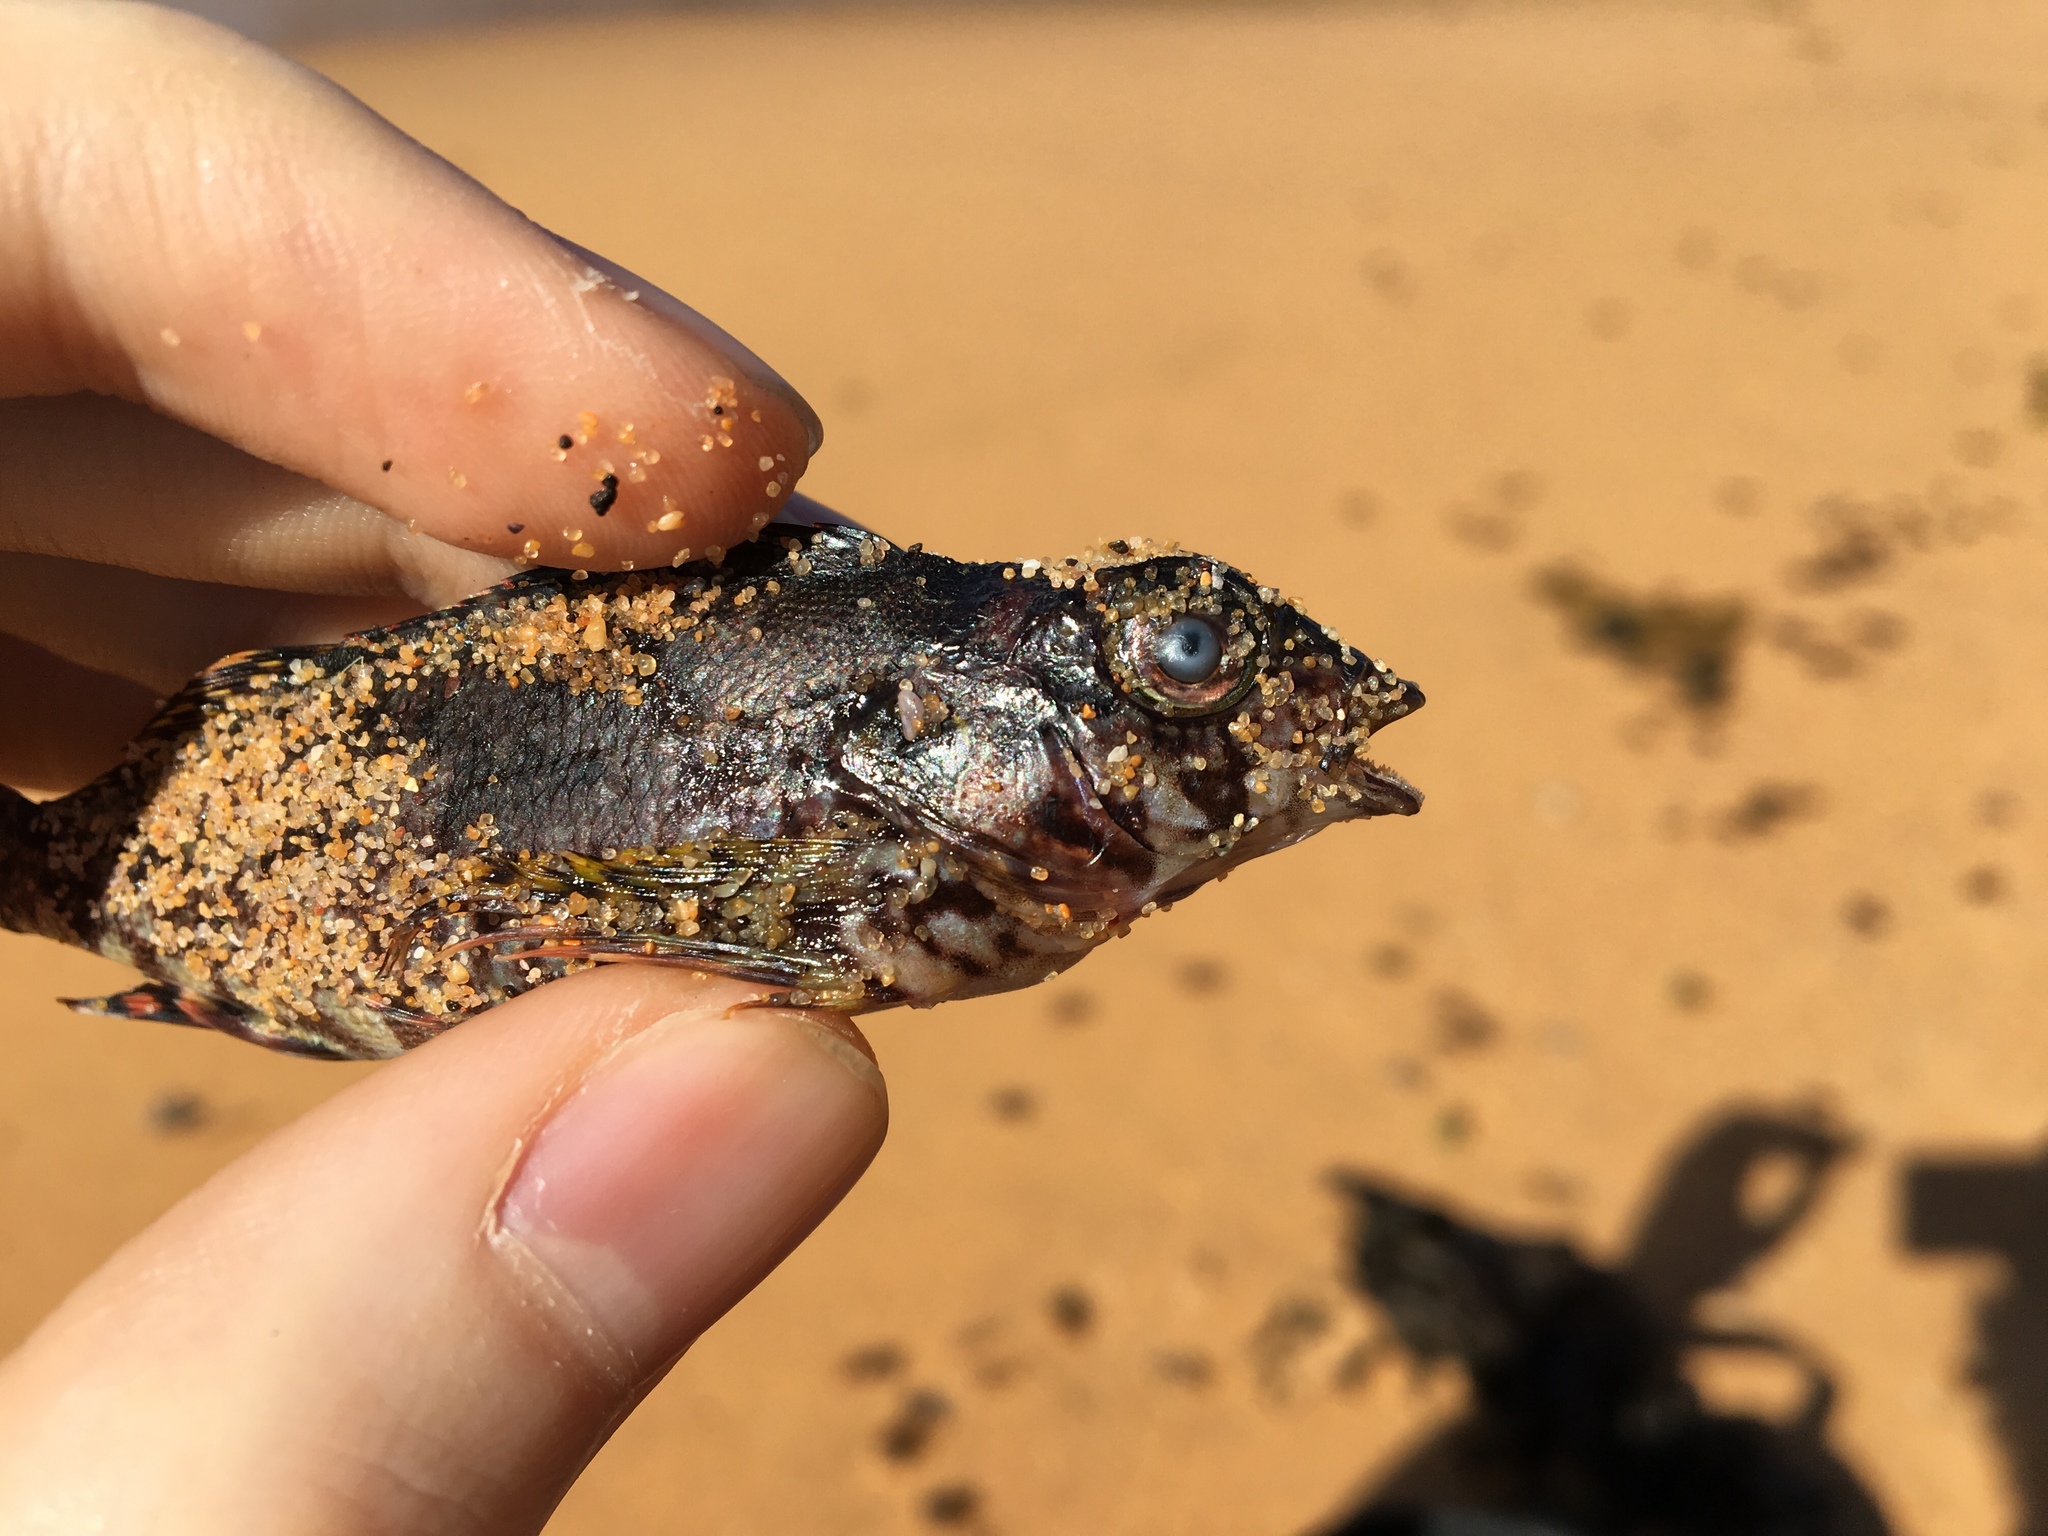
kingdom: Animalia
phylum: Chordata
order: Perciformes
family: Chironemidae
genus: Chironemus
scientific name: Chironemus marmoratus
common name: Kelpfish
